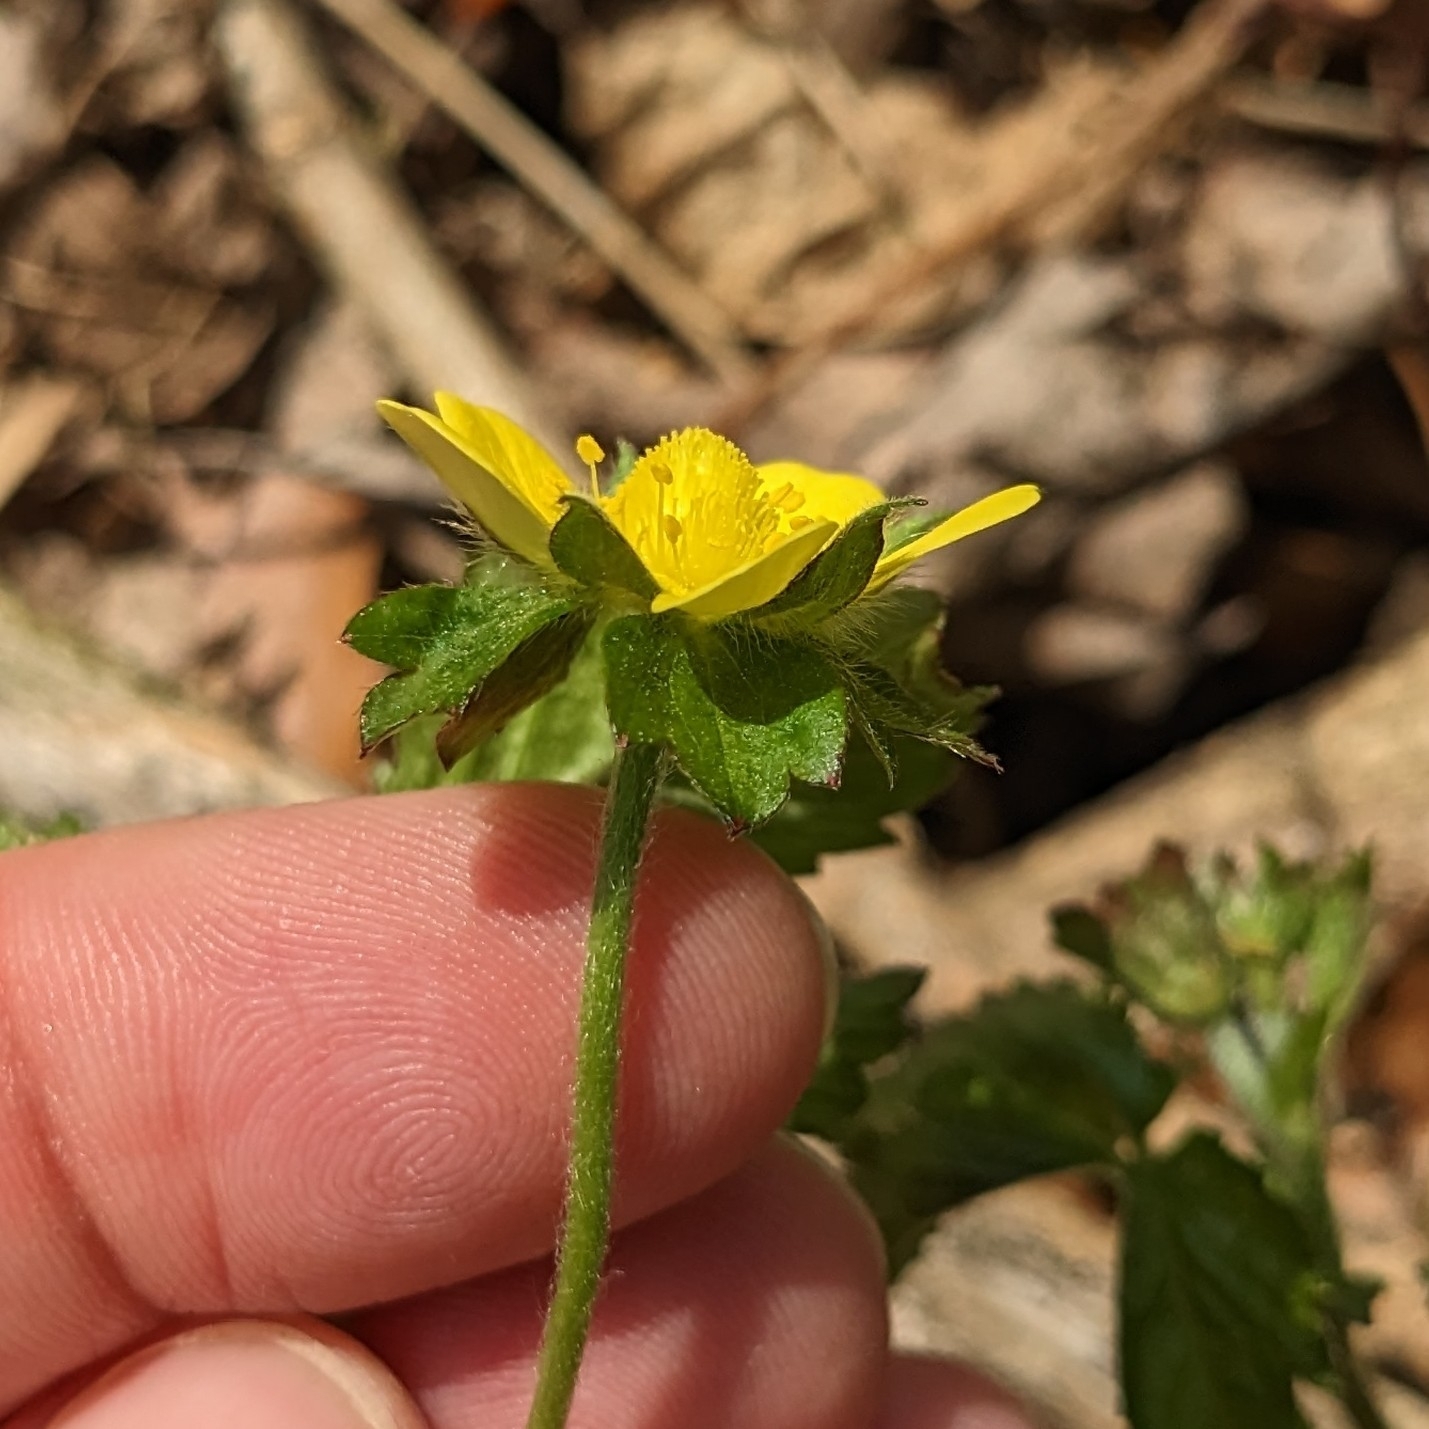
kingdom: Plantae
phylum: Tracheophyta
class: Magnoliopsida
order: Rosales
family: Rosaceae
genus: Potentilla
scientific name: Potentilla indica
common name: Yellow-flowered strawberry
